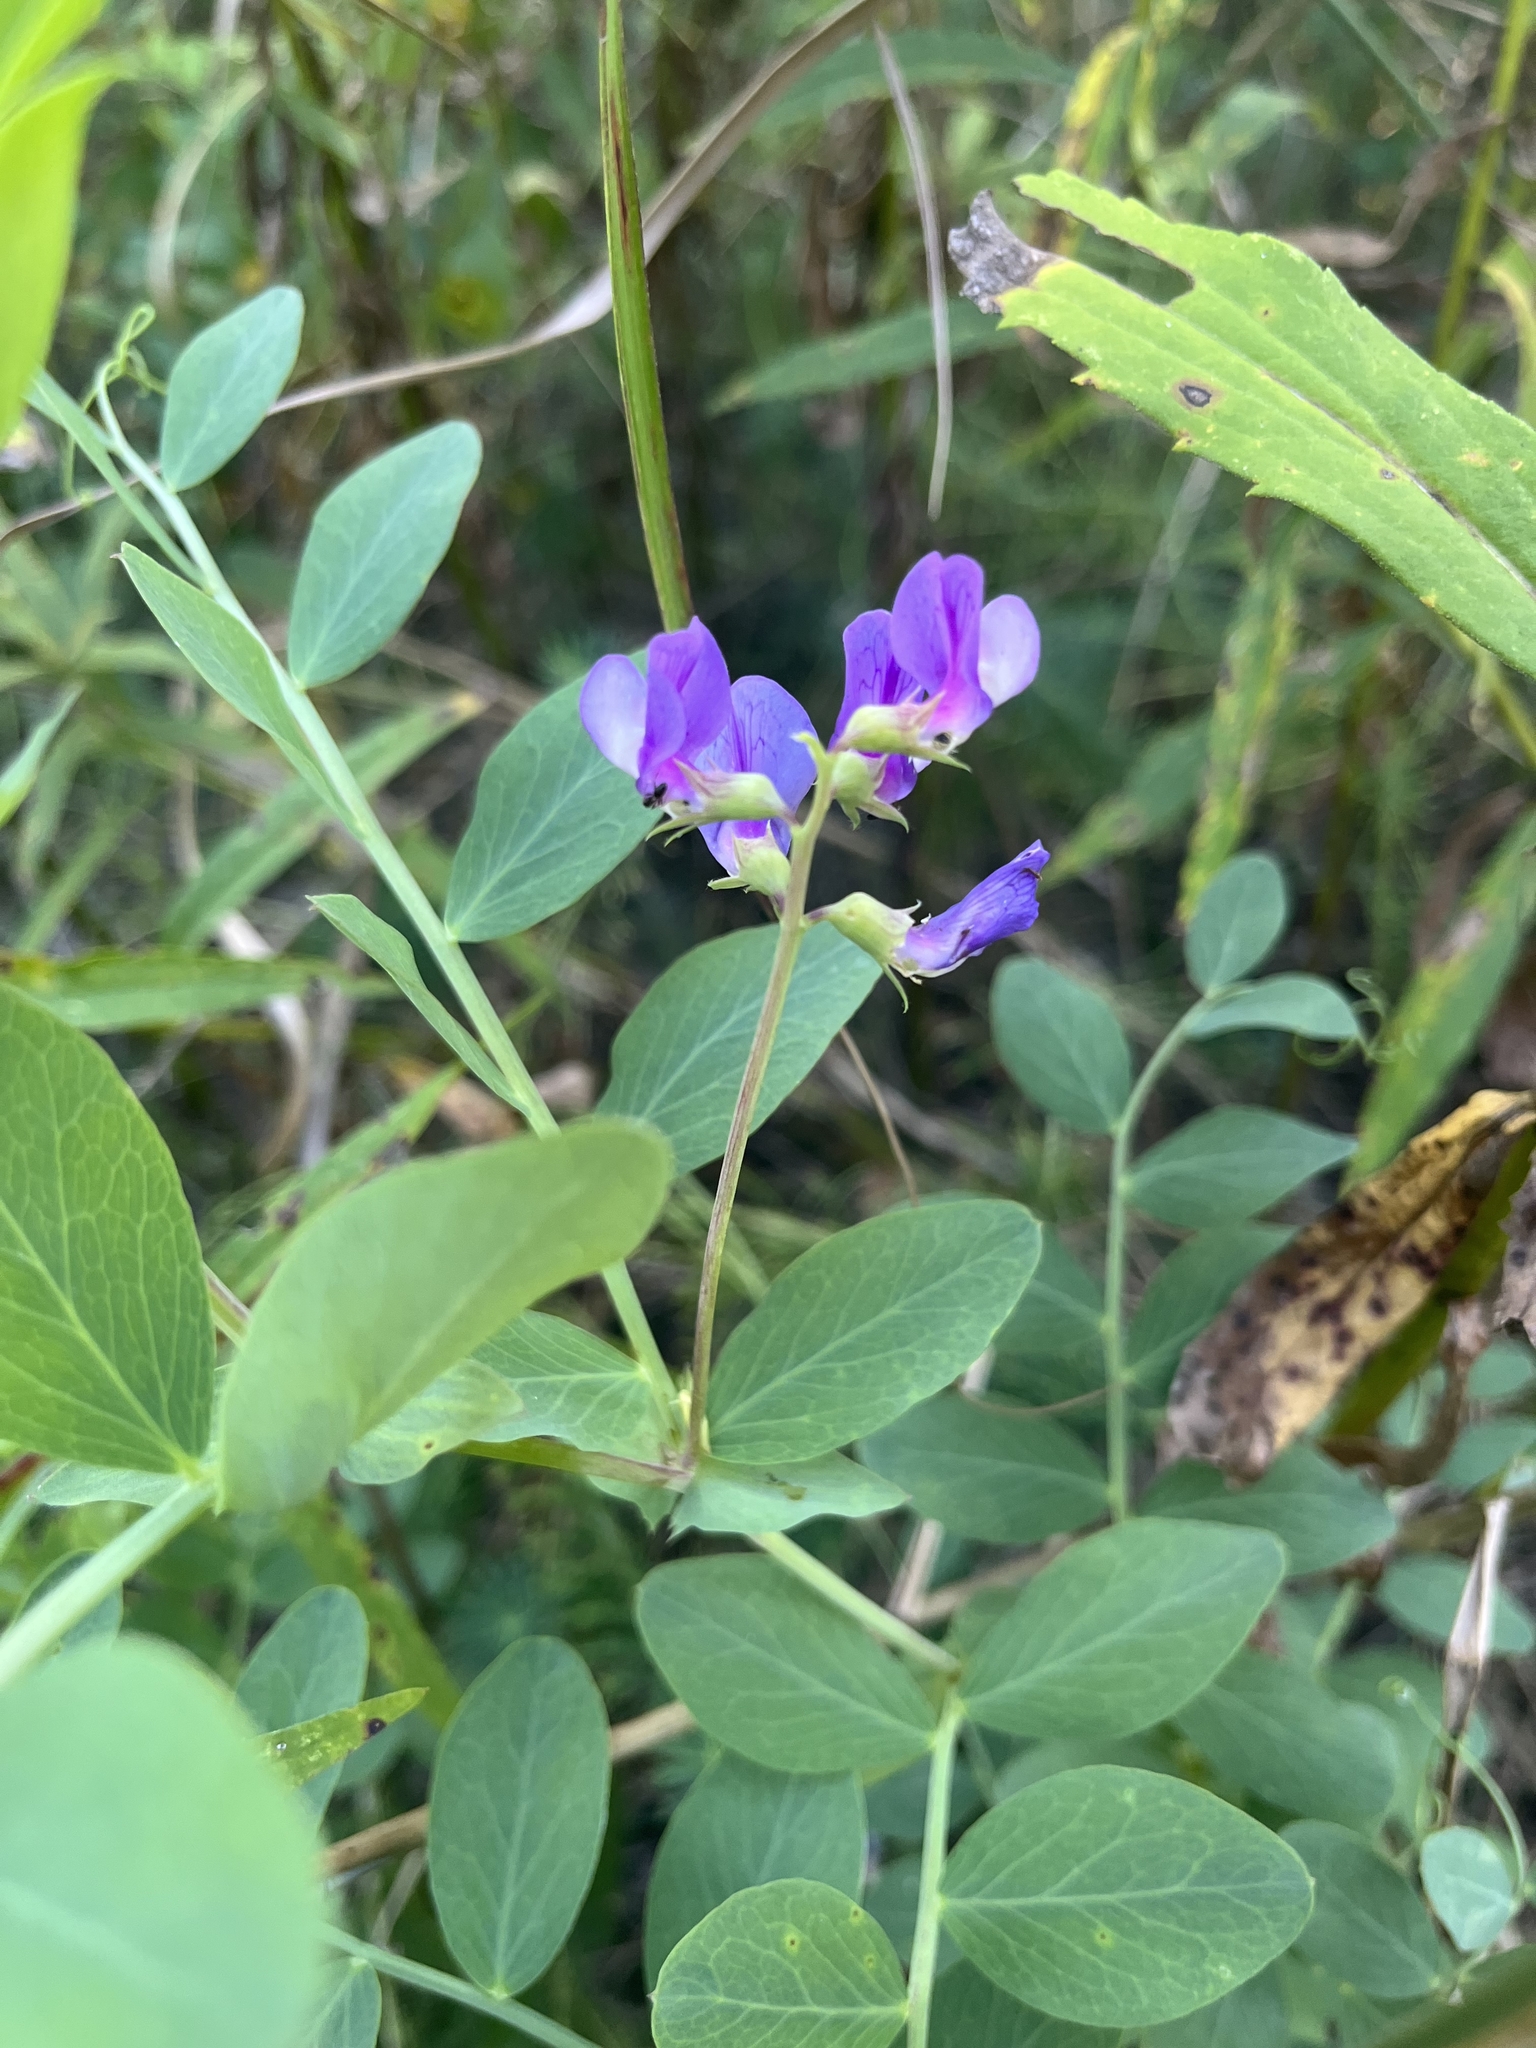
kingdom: Plantae
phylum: Tracheophyta
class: Magnoliopsida
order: Fabales
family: Fabaceae
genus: Lathyrus
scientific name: Lathyrus japonicus
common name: Sea pea
